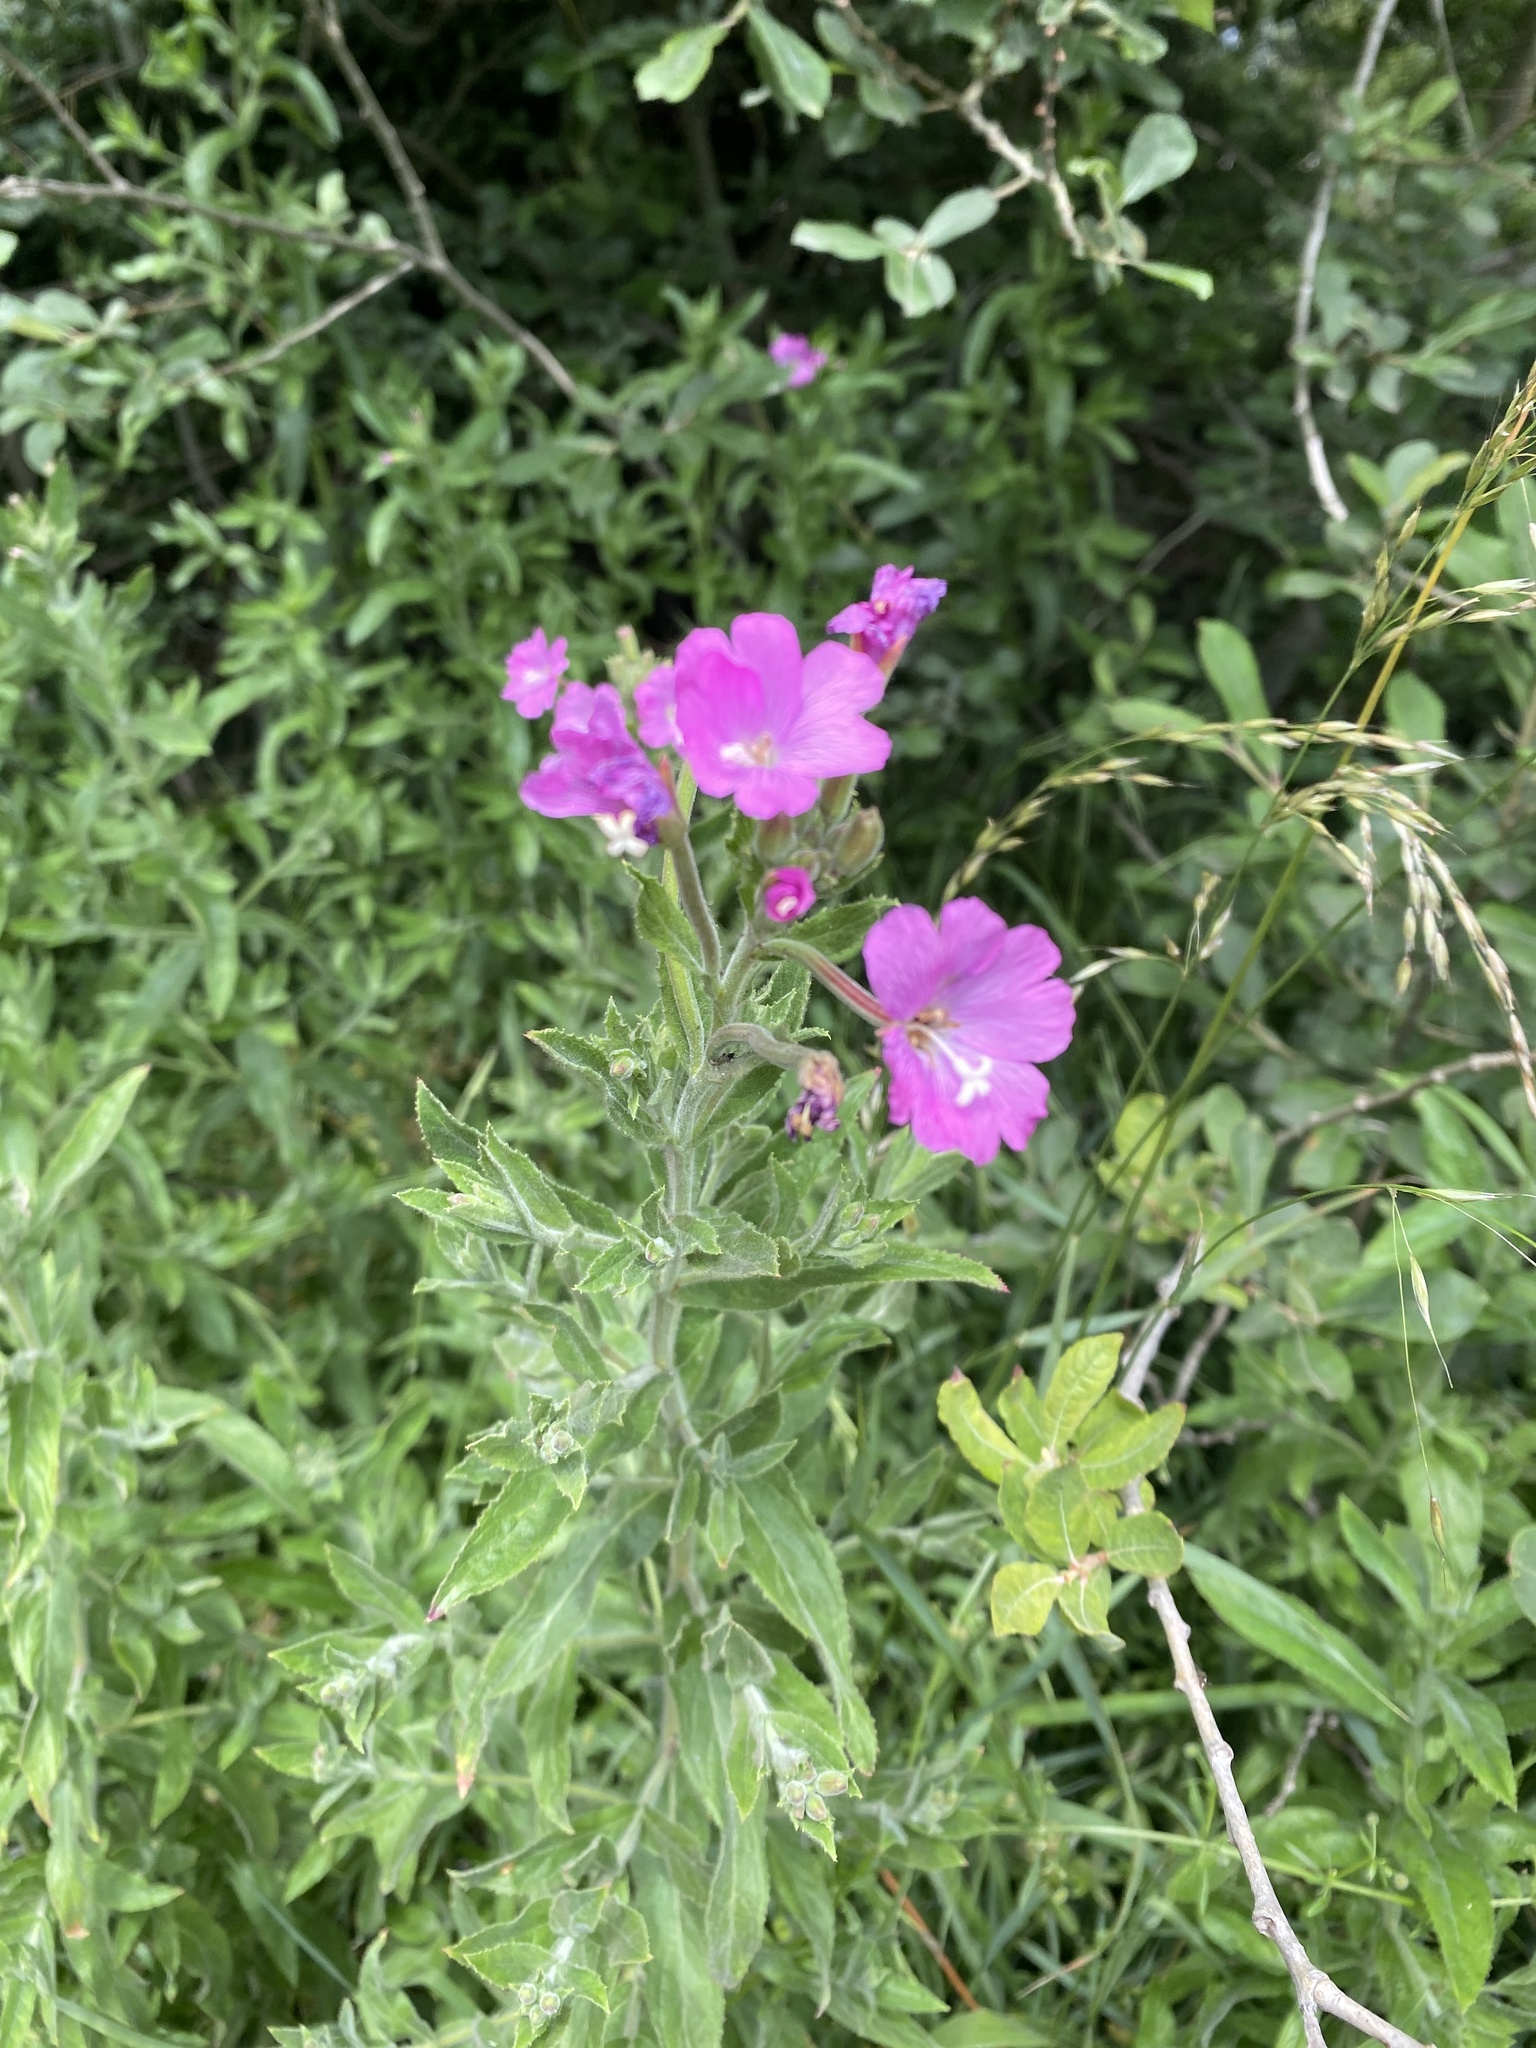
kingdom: Plantae
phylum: Tracheophyta
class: Magnoliopsida
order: Myrtales
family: Onagraceae
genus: Epilobium
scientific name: Epilobium hirsutum
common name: Great willowherb
